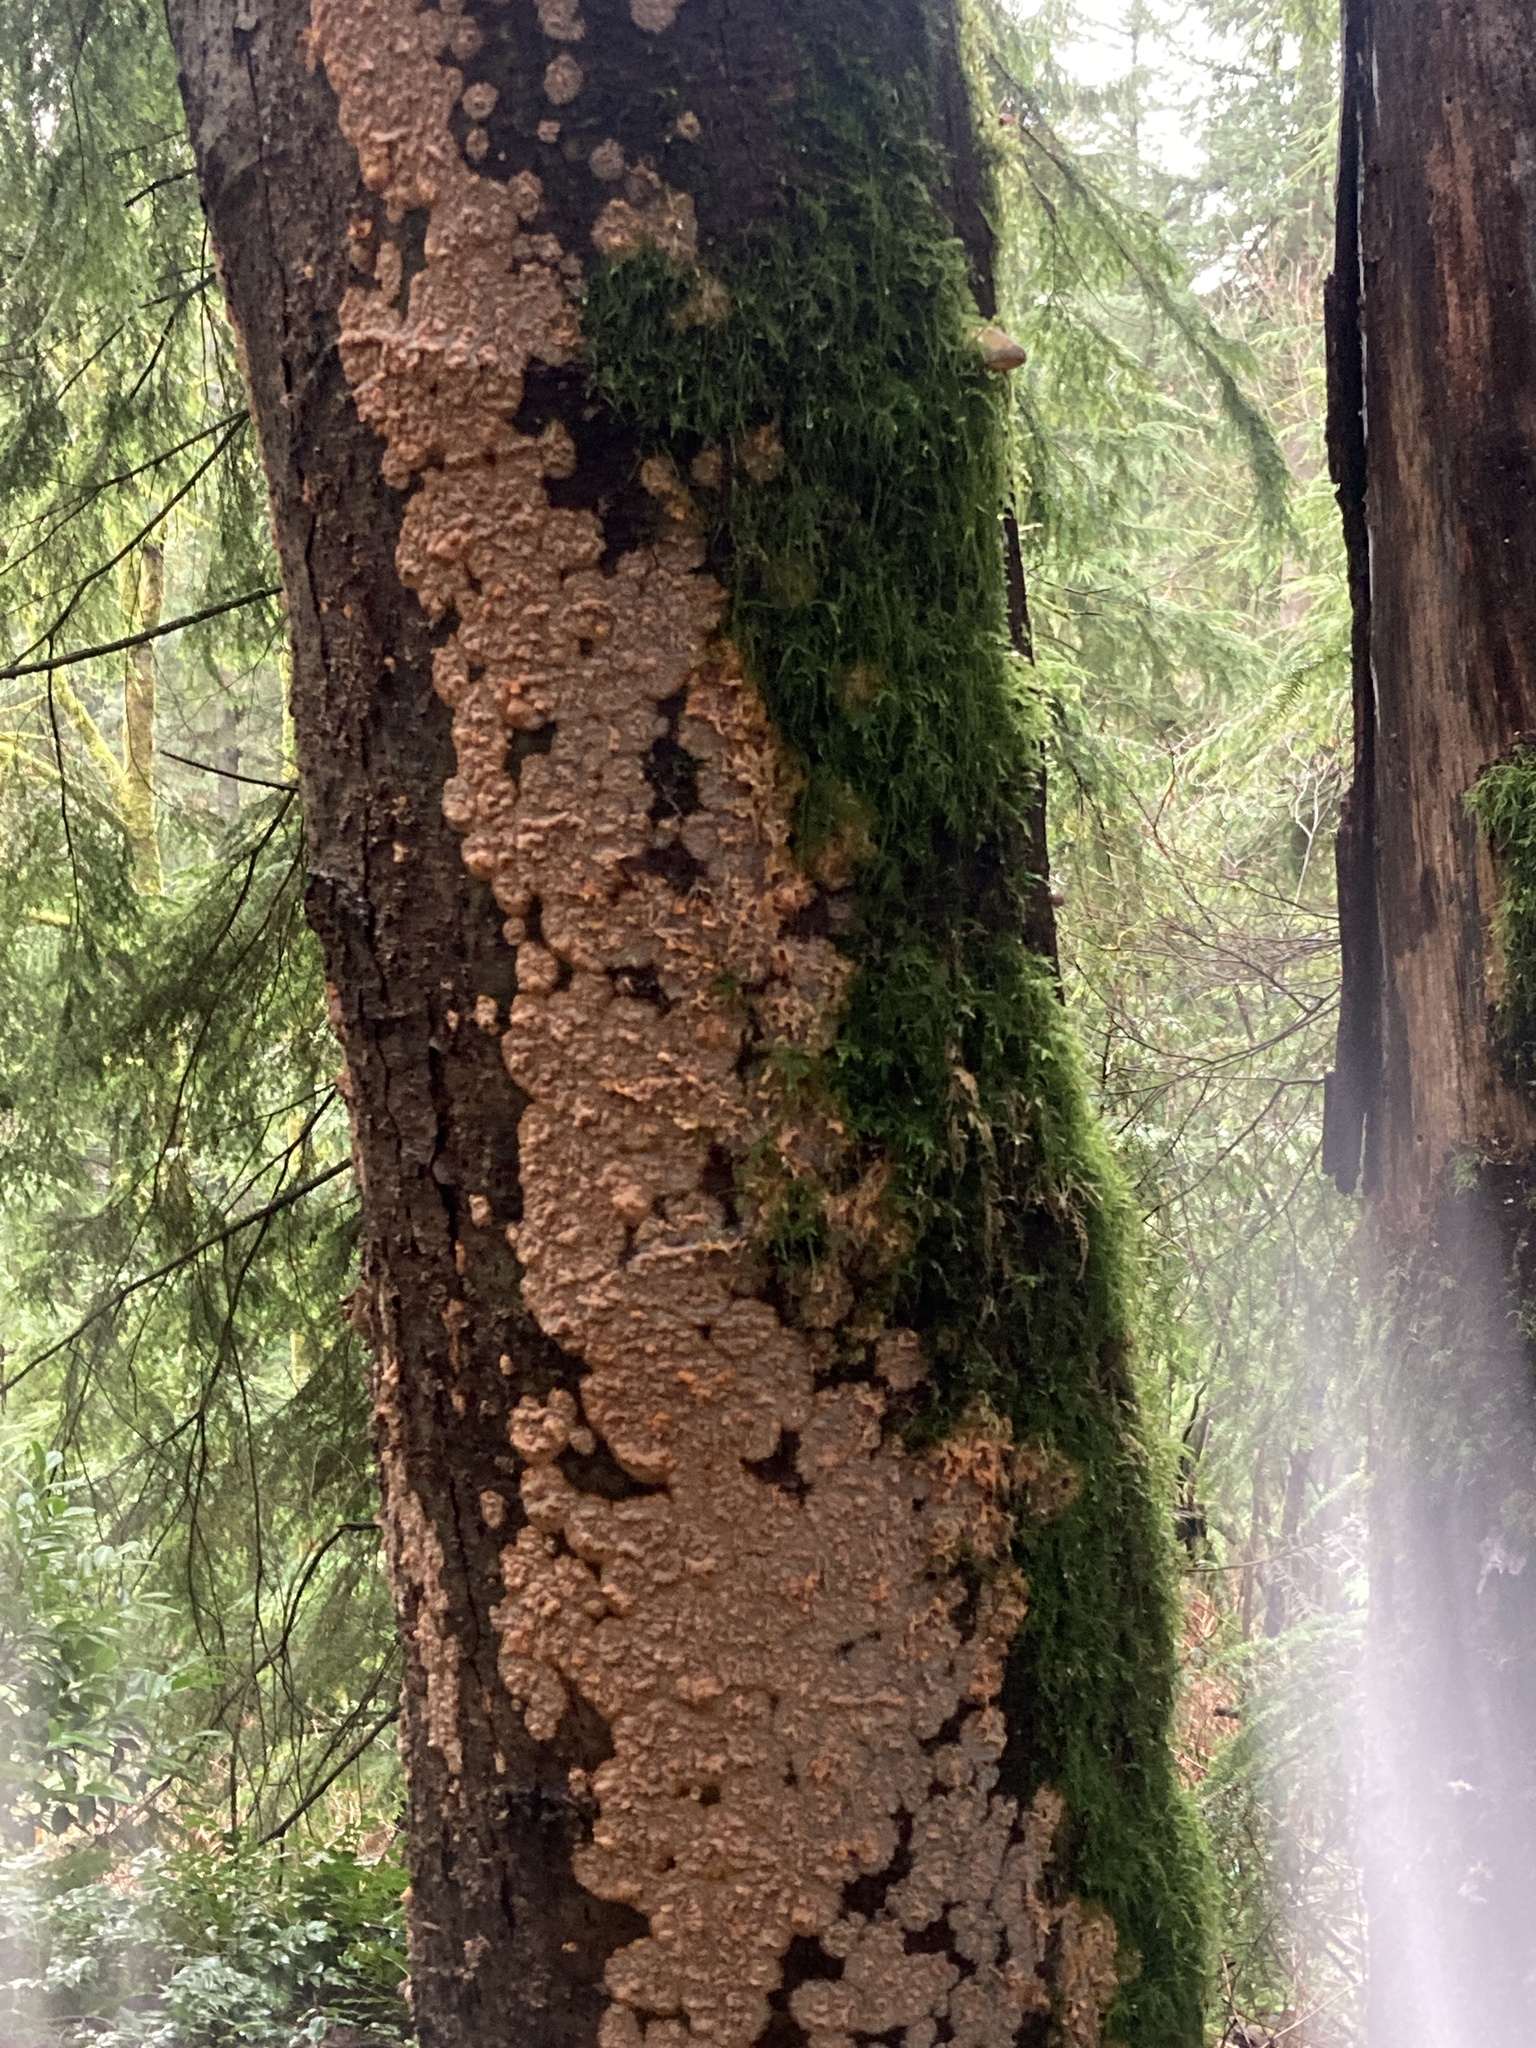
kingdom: Fungi
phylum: Basidiomycota
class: Agaricomycetes
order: Polyporales
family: Meruliaceae
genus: Phlebia
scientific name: Phlebia radiata
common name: Wrinkled crust
